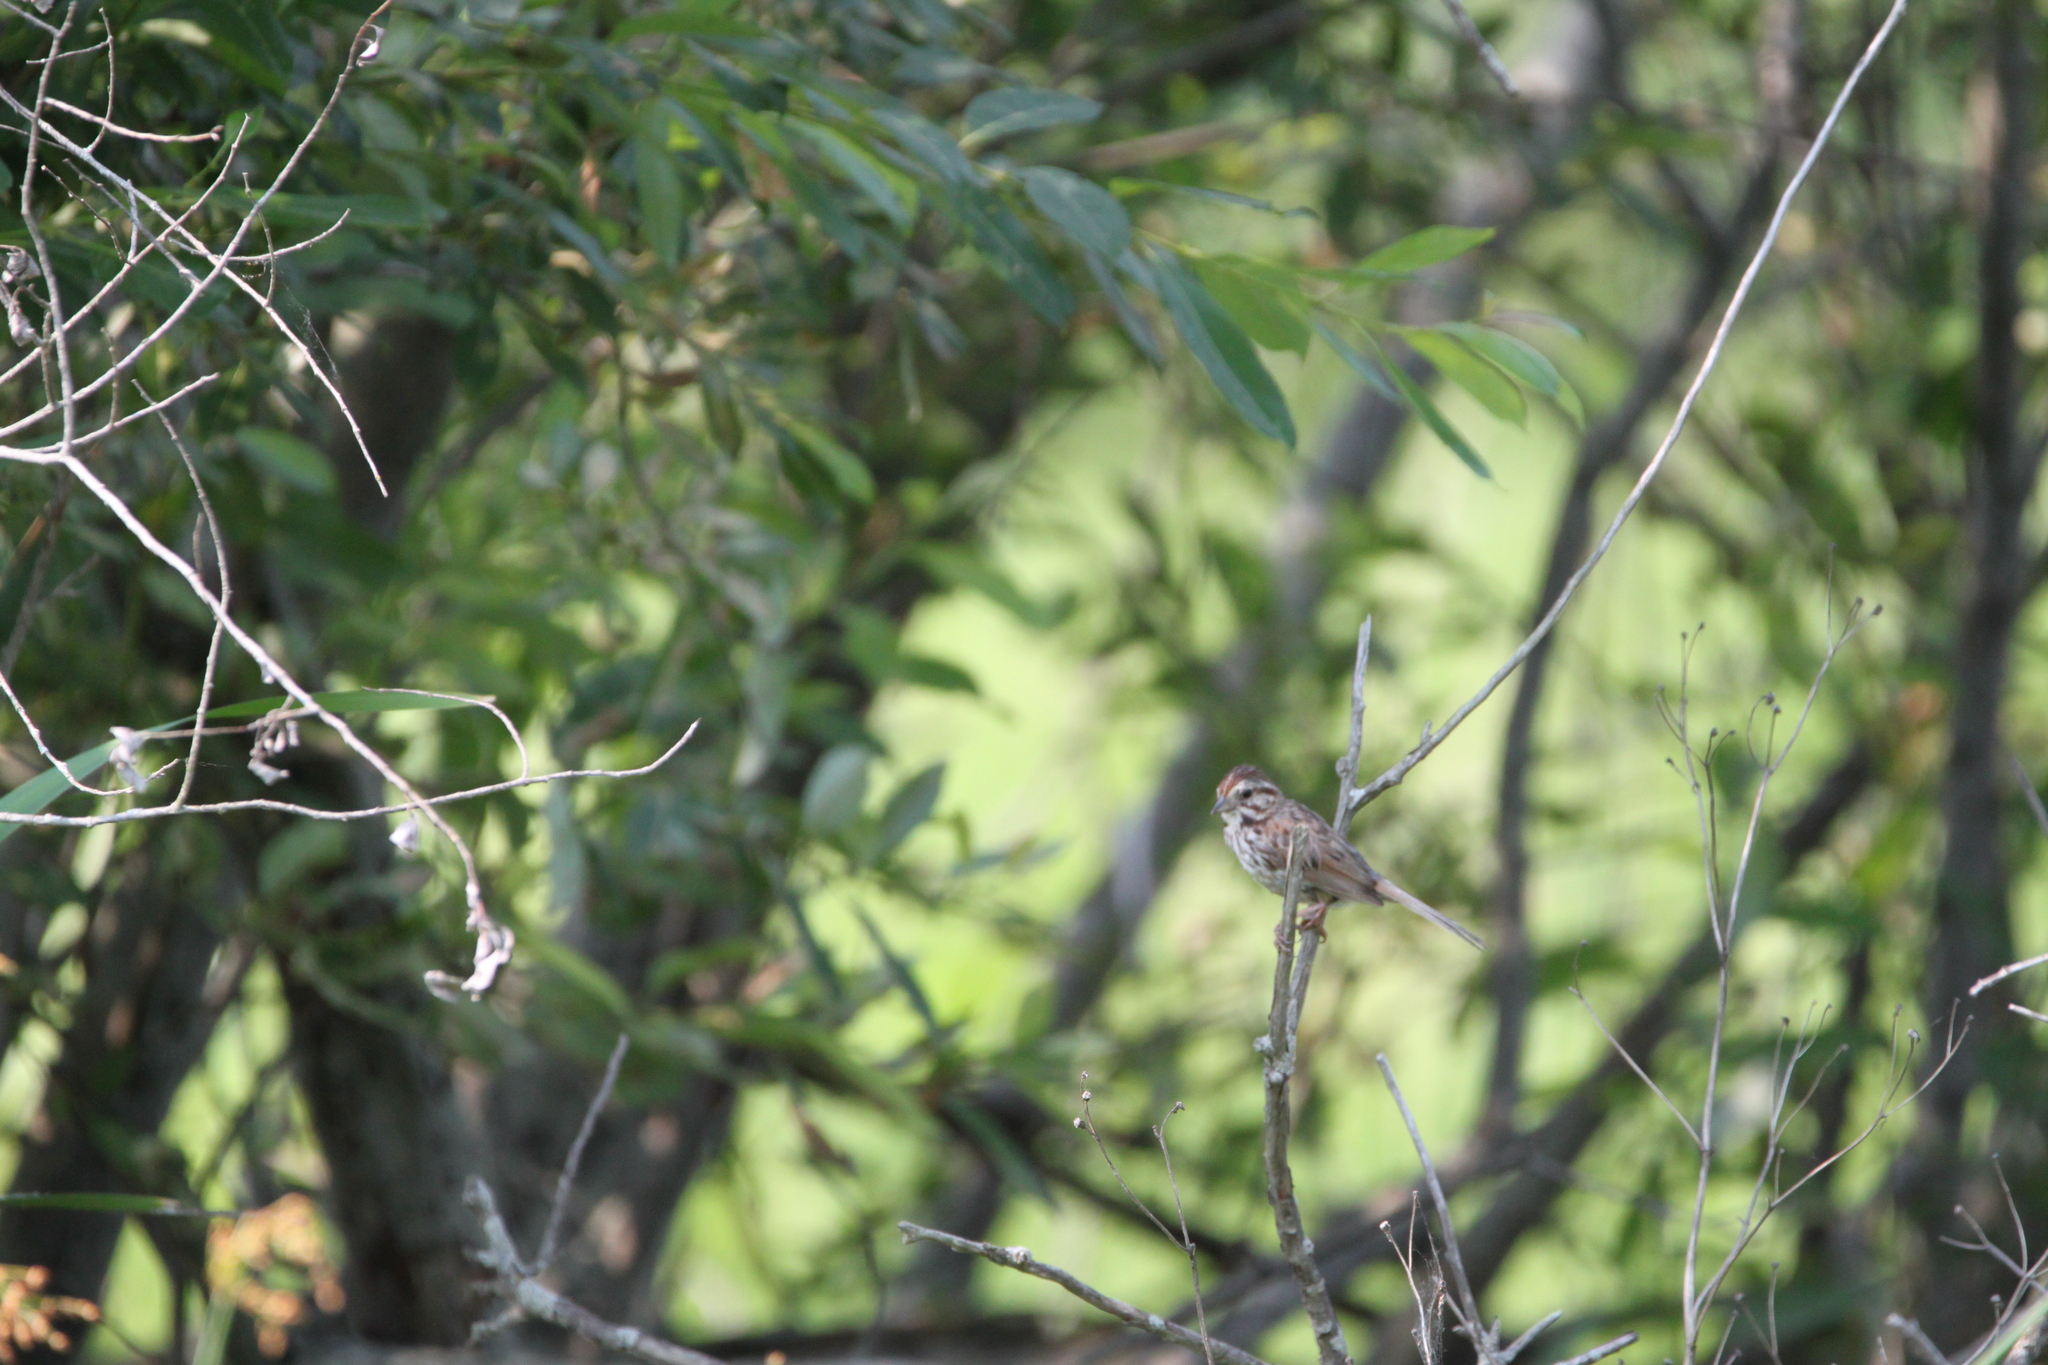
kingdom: Animalia
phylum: Chordata
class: Aves
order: Passeriformes
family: Passerellidae
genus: Melospiza
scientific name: Melospiza melodia
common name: Song sparrow
